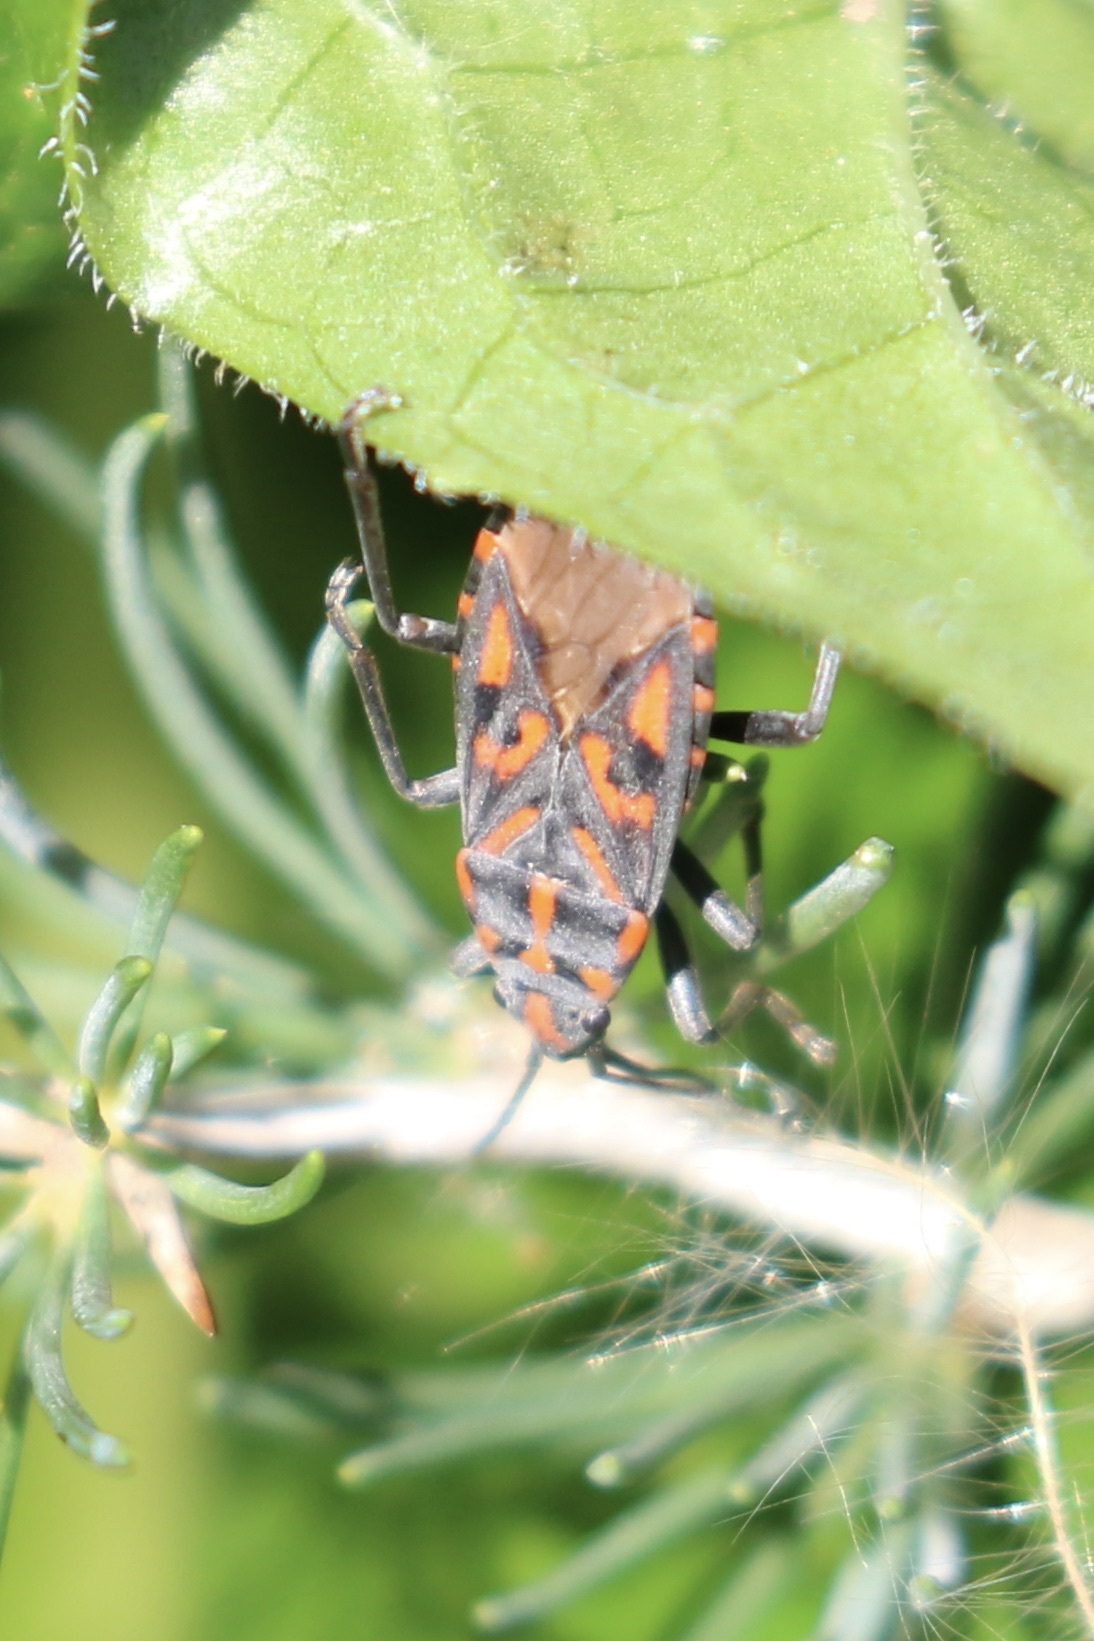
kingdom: Animalia
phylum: Arthropoda
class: Insecta
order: Hemiptera
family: Lygaeidae
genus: Spilostethus
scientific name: Spilostethus saxatilis
